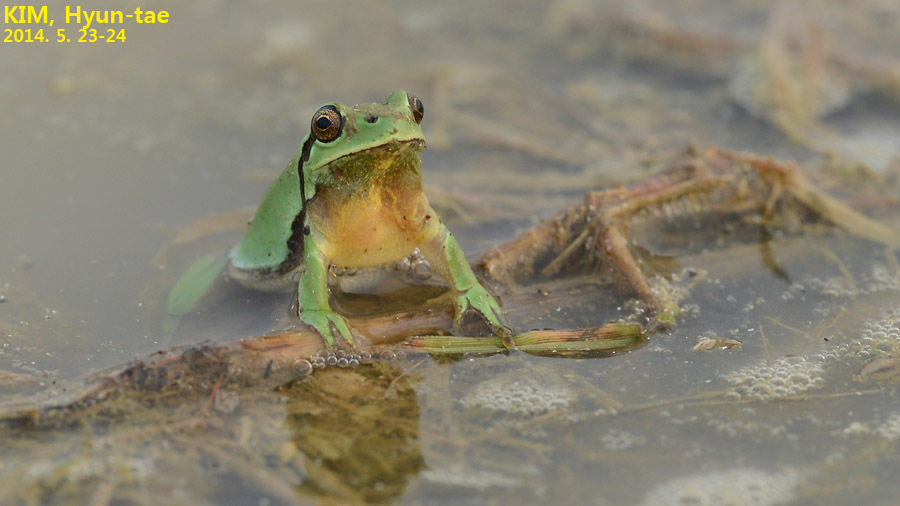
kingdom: Animalia
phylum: Chordata
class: Amphibia
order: Anura
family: Hylidae
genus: Dryophytes
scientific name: Dryophytes immaculatus
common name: North china treefrog
